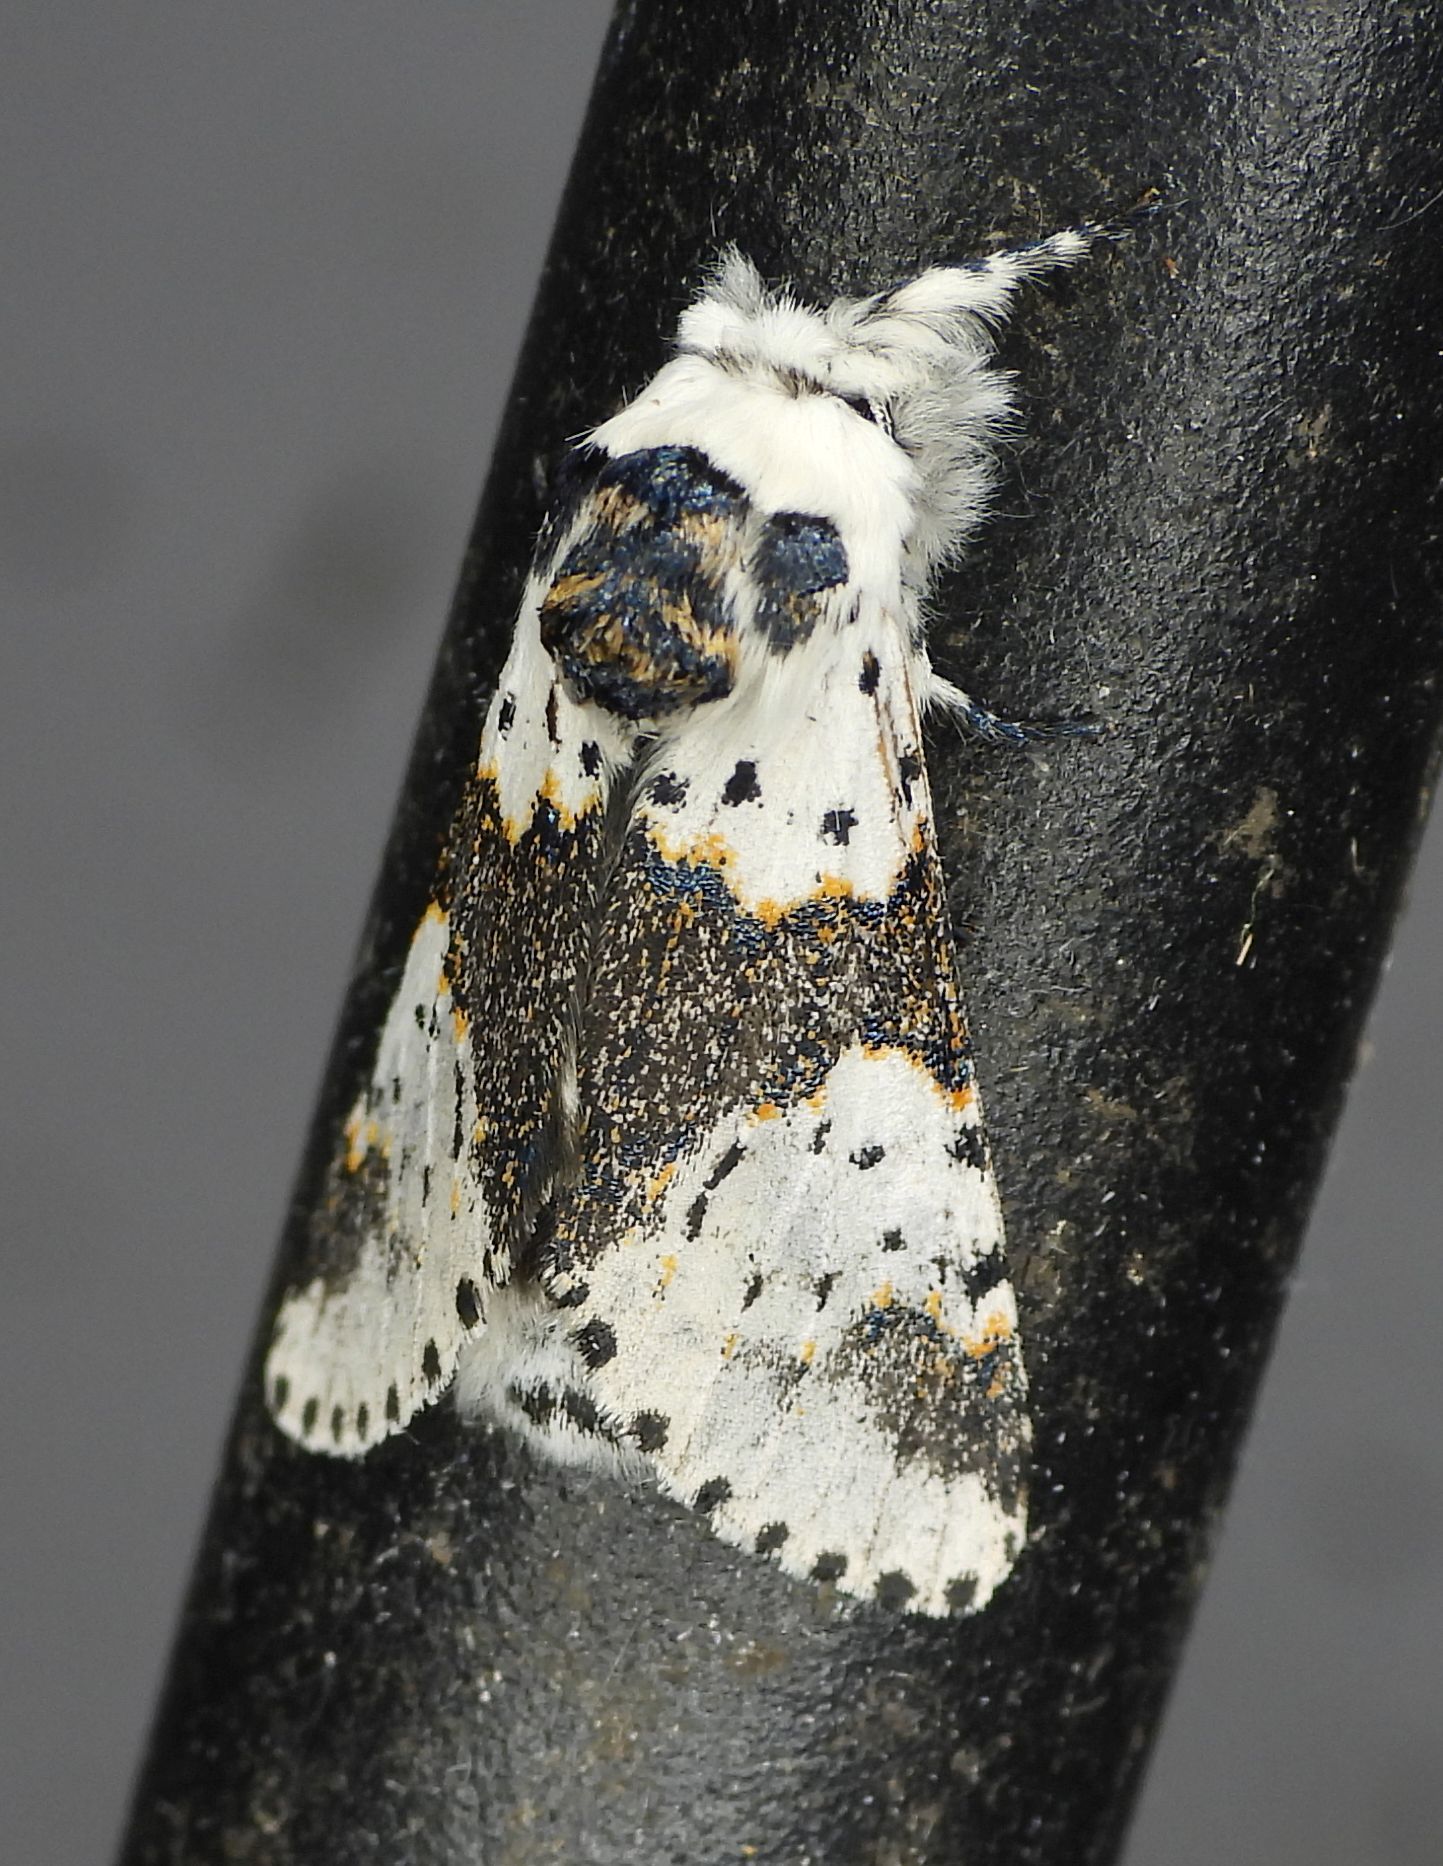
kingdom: Animalia
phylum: Arthropoda
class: Insecta
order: Lepidoptera
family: Notodontidae
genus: Furcula
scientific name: Furcula borealis
